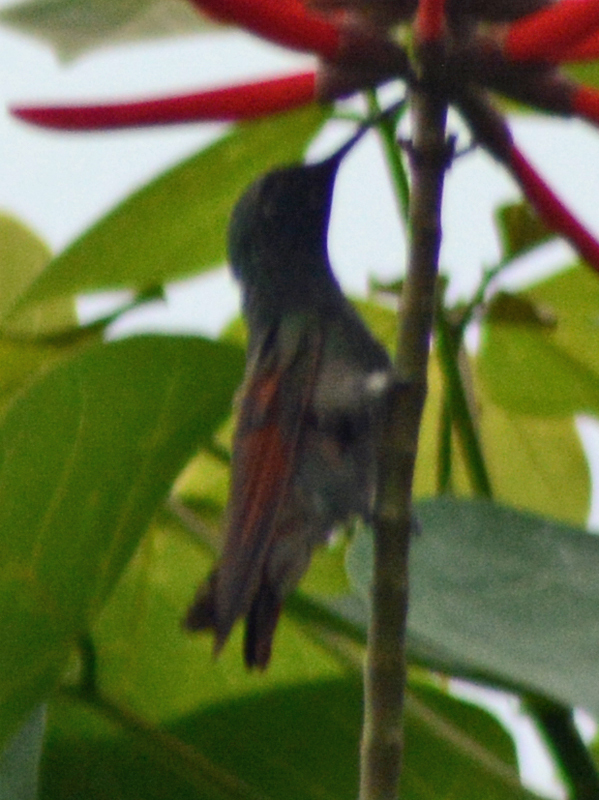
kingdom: Animalia
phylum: Chordata
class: Aves
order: Apodiformes
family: Trochilidae
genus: Saucerottia
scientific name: Saucerottia beryllina
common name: Berylline hummingbird
